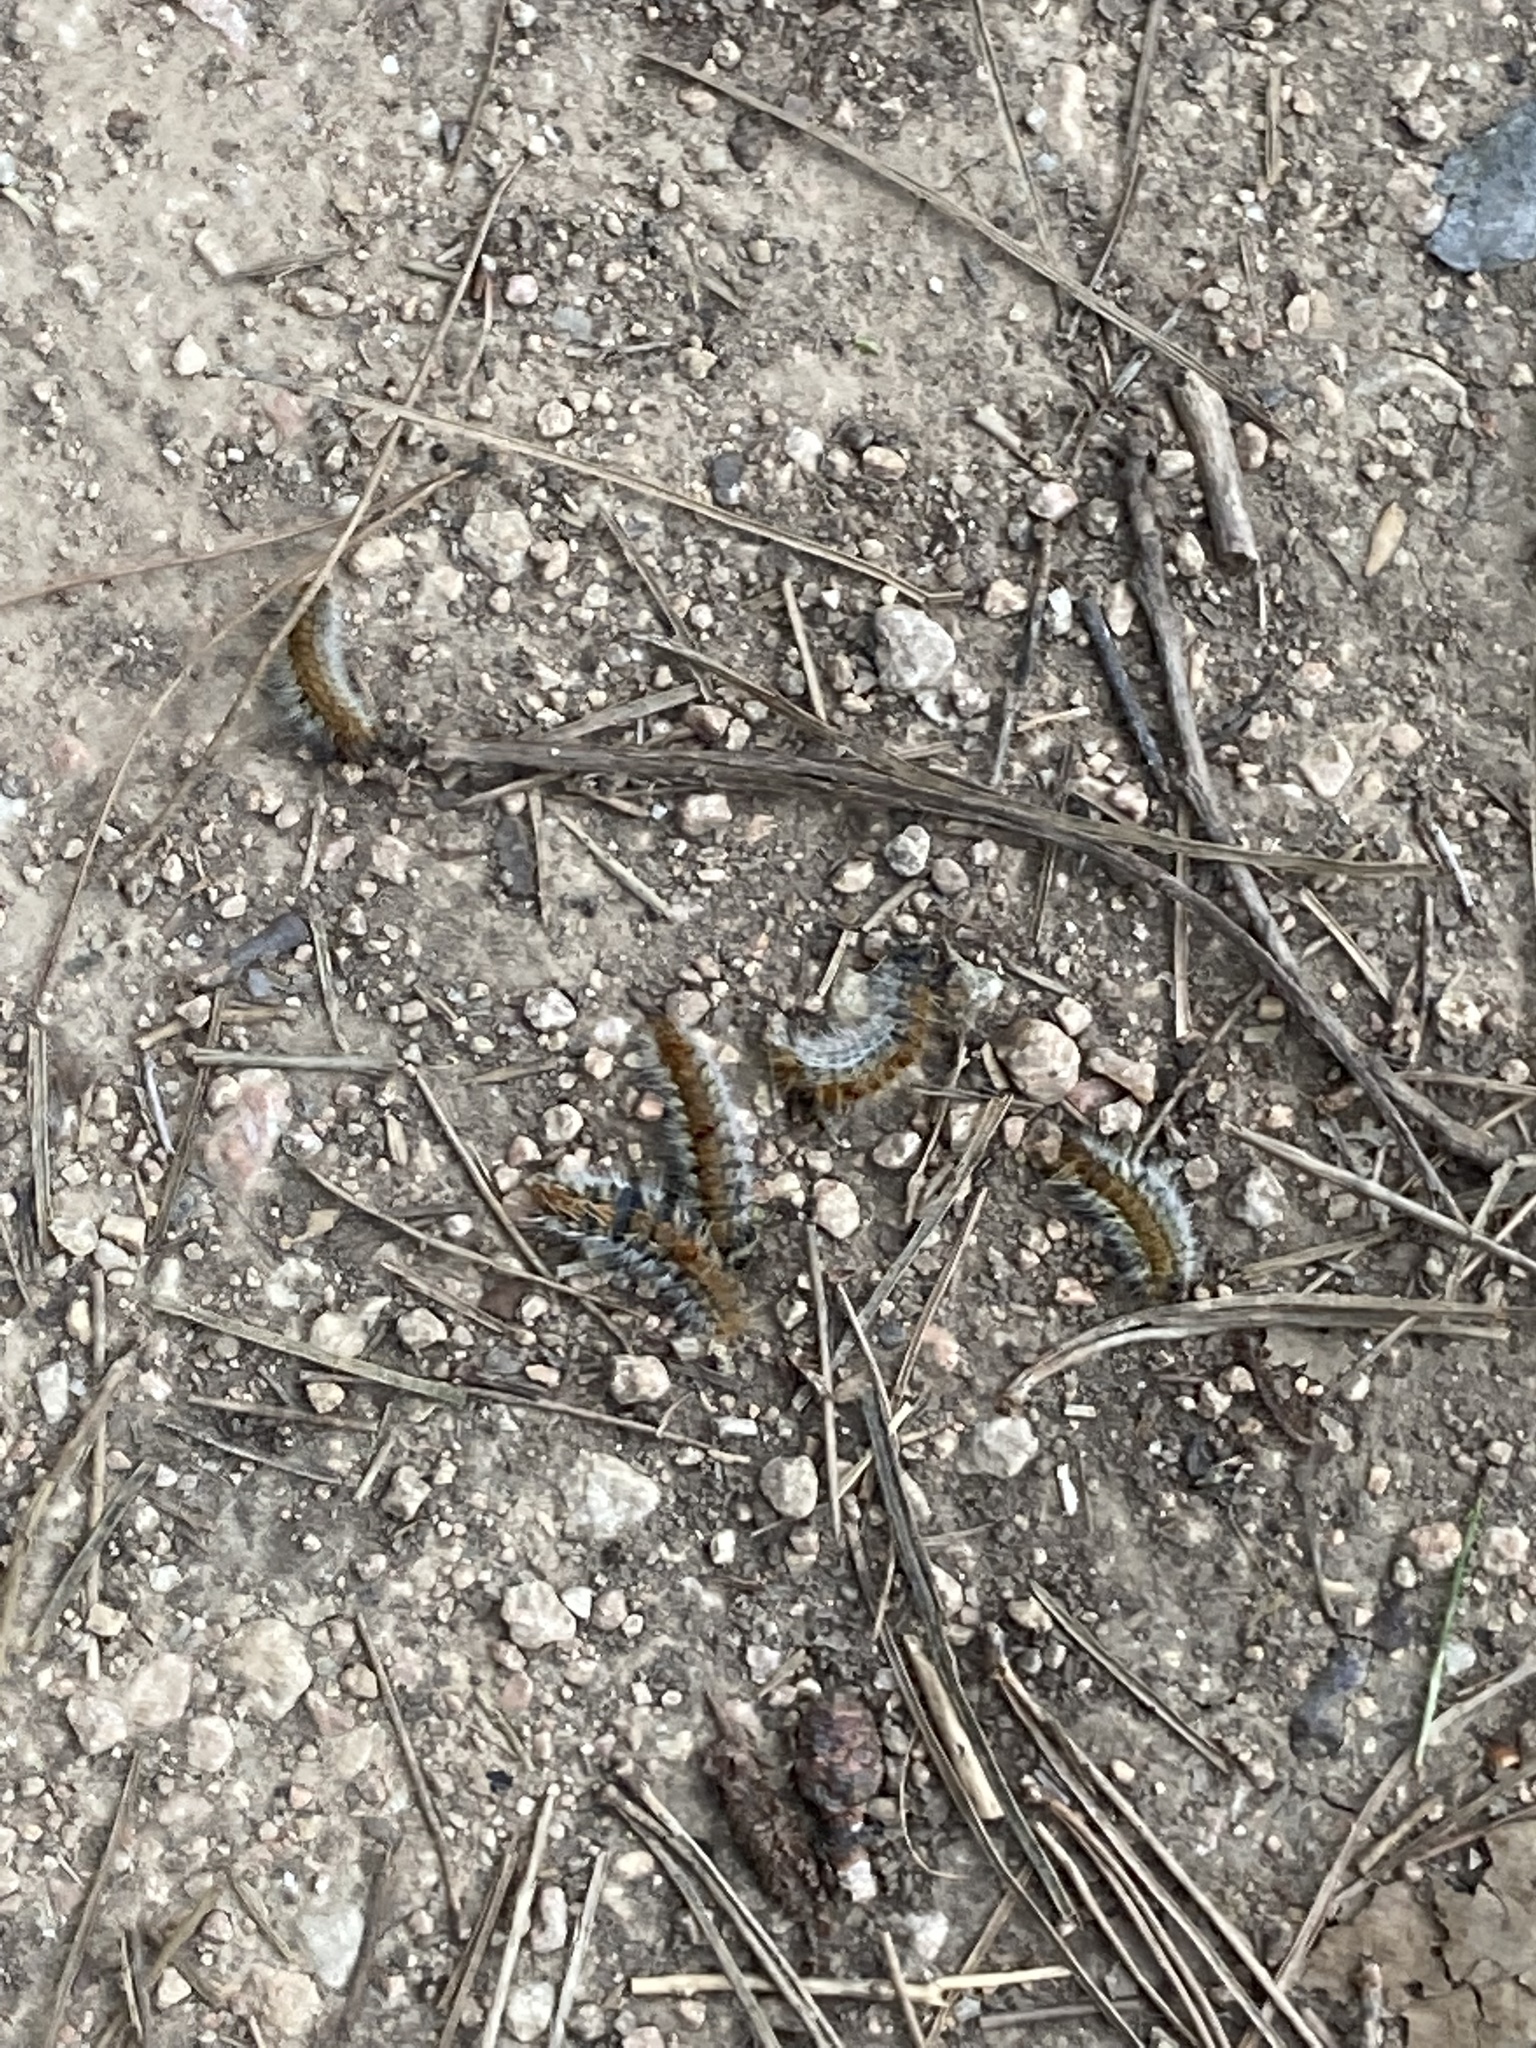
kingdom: Animalia
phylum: Arthropoda
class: Insecta
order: Lepidoptera
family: Notodontidae
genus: Thaumetopoea
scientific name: Thaumetopoea pityocampa
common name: Pine processionary
